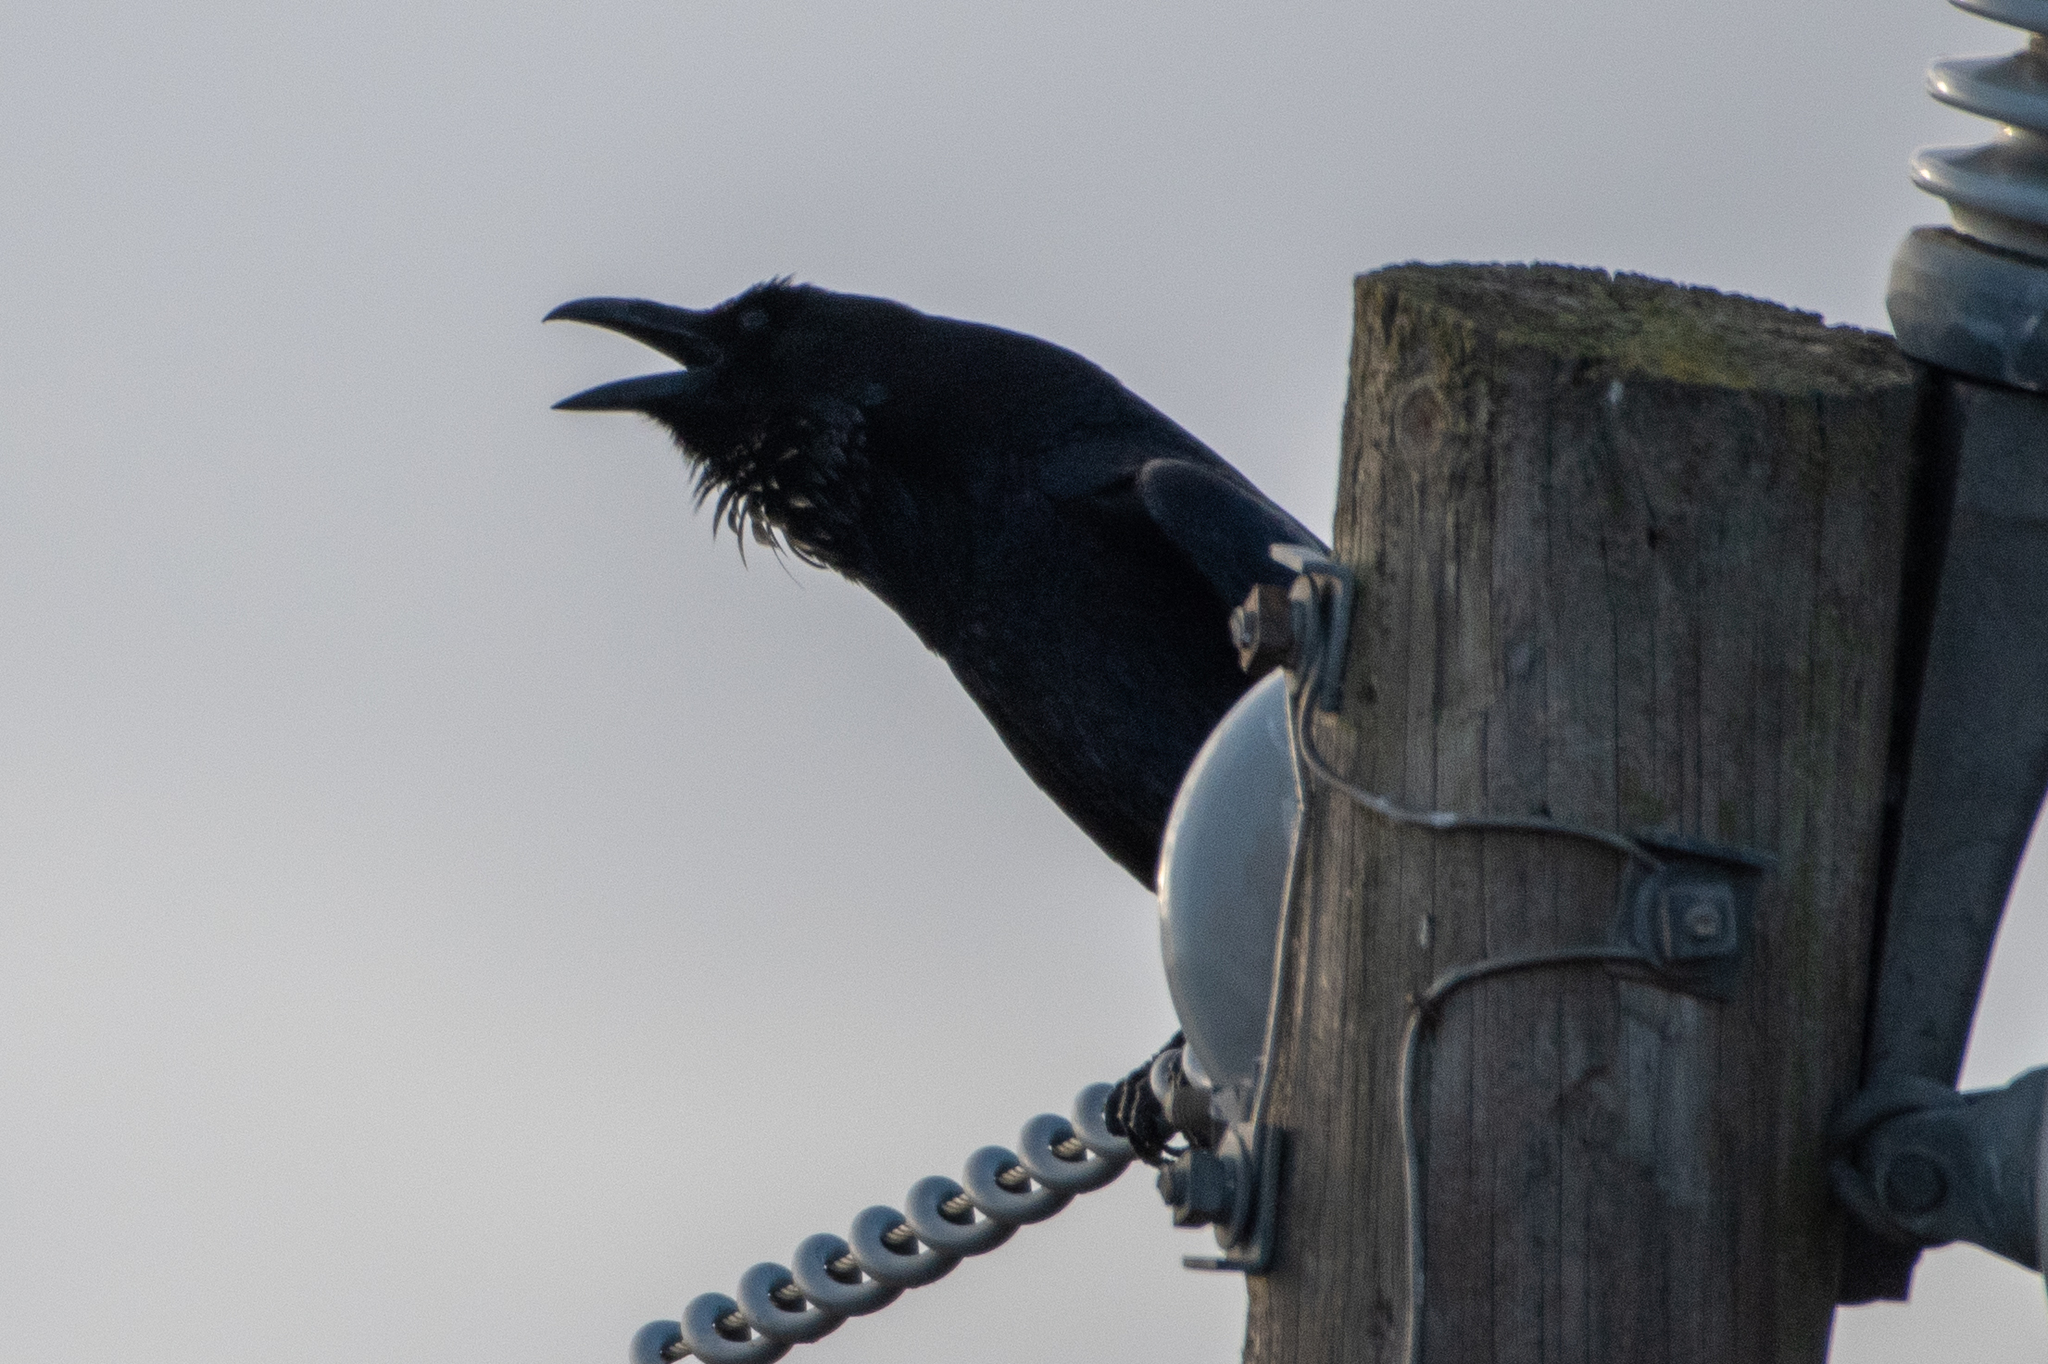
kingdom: Animalia
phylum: Chordata
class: Aves
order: Passeriformes
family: Corvidae
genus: Corvus
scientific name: Corvus corax
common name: Common raven
